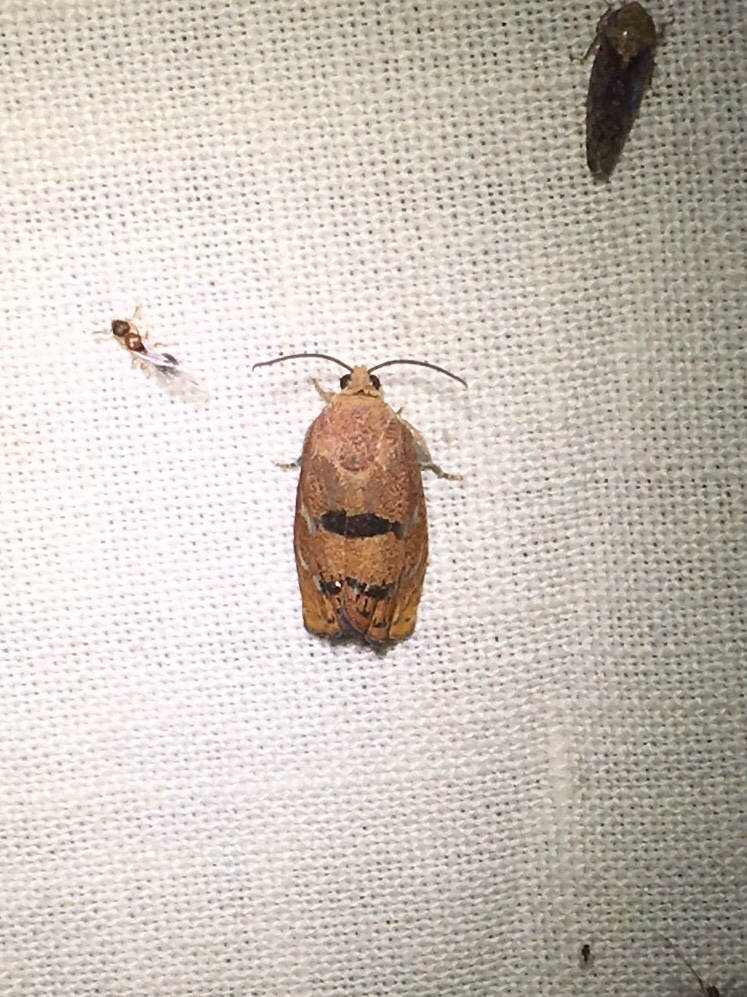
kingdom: Animalia
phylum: Arthropoda
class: Insecta
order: Lepidoptera
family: Tortricidae
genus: Cydia
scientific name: Cydia latiferreana
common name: Filbertworm moth
